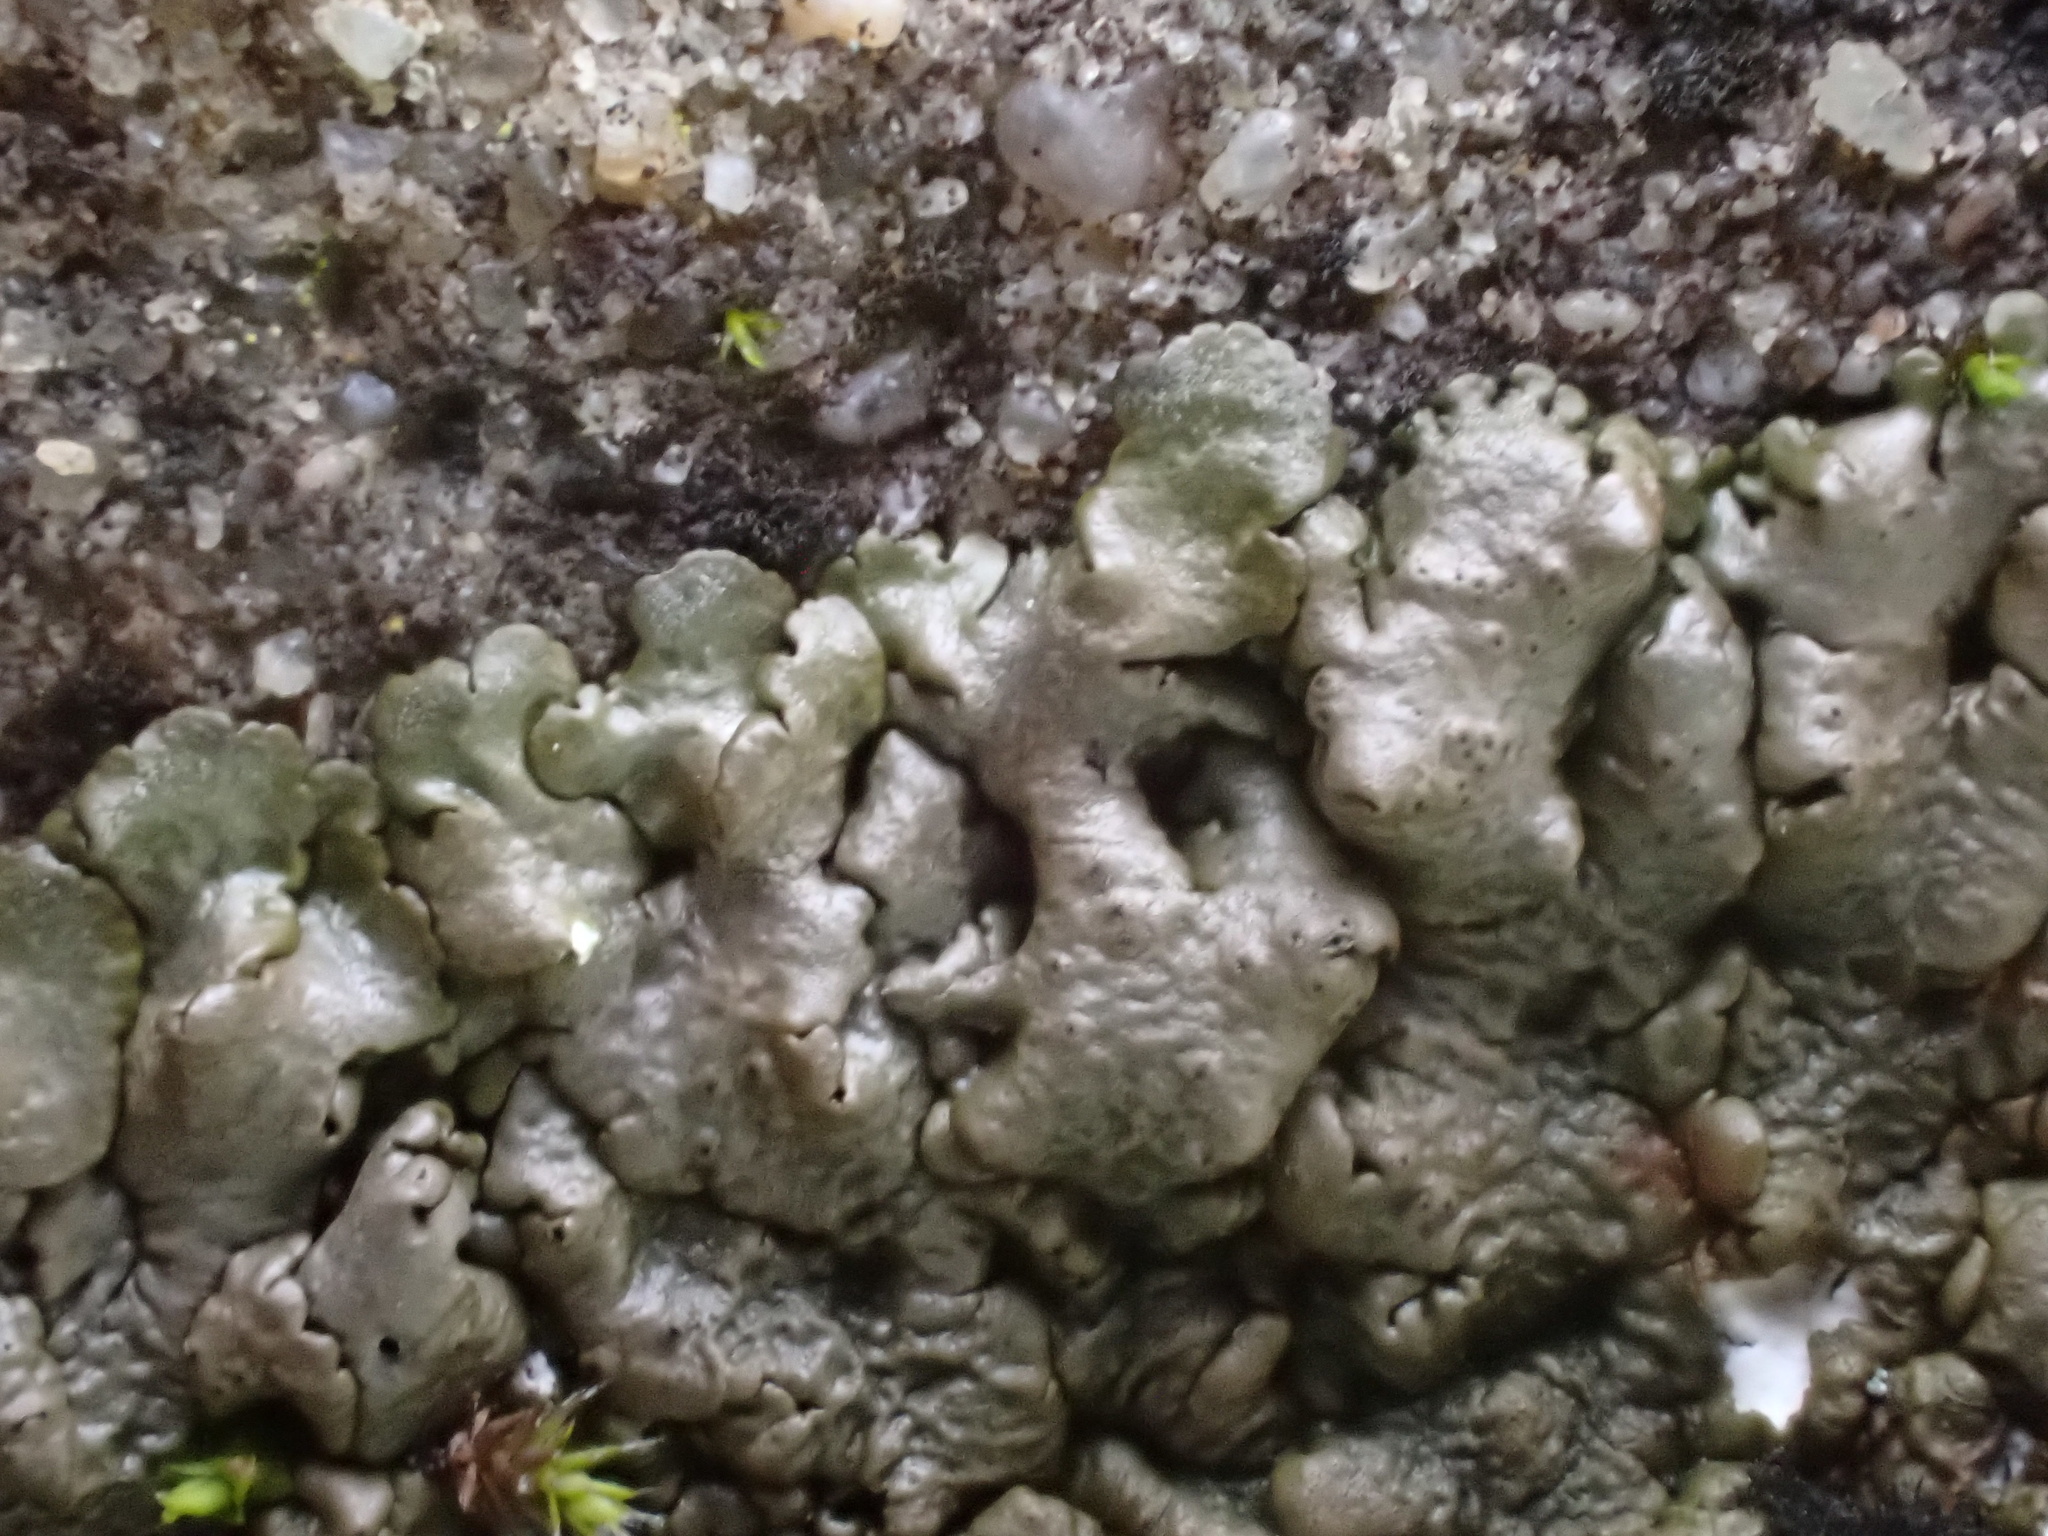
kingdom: Fungi
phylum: Ascomycota
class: Lecanoromycetes
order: Lecanorales
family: Parmeliaceae
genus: Xanthoparmelia
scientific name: Xanthoparmelia pulla
